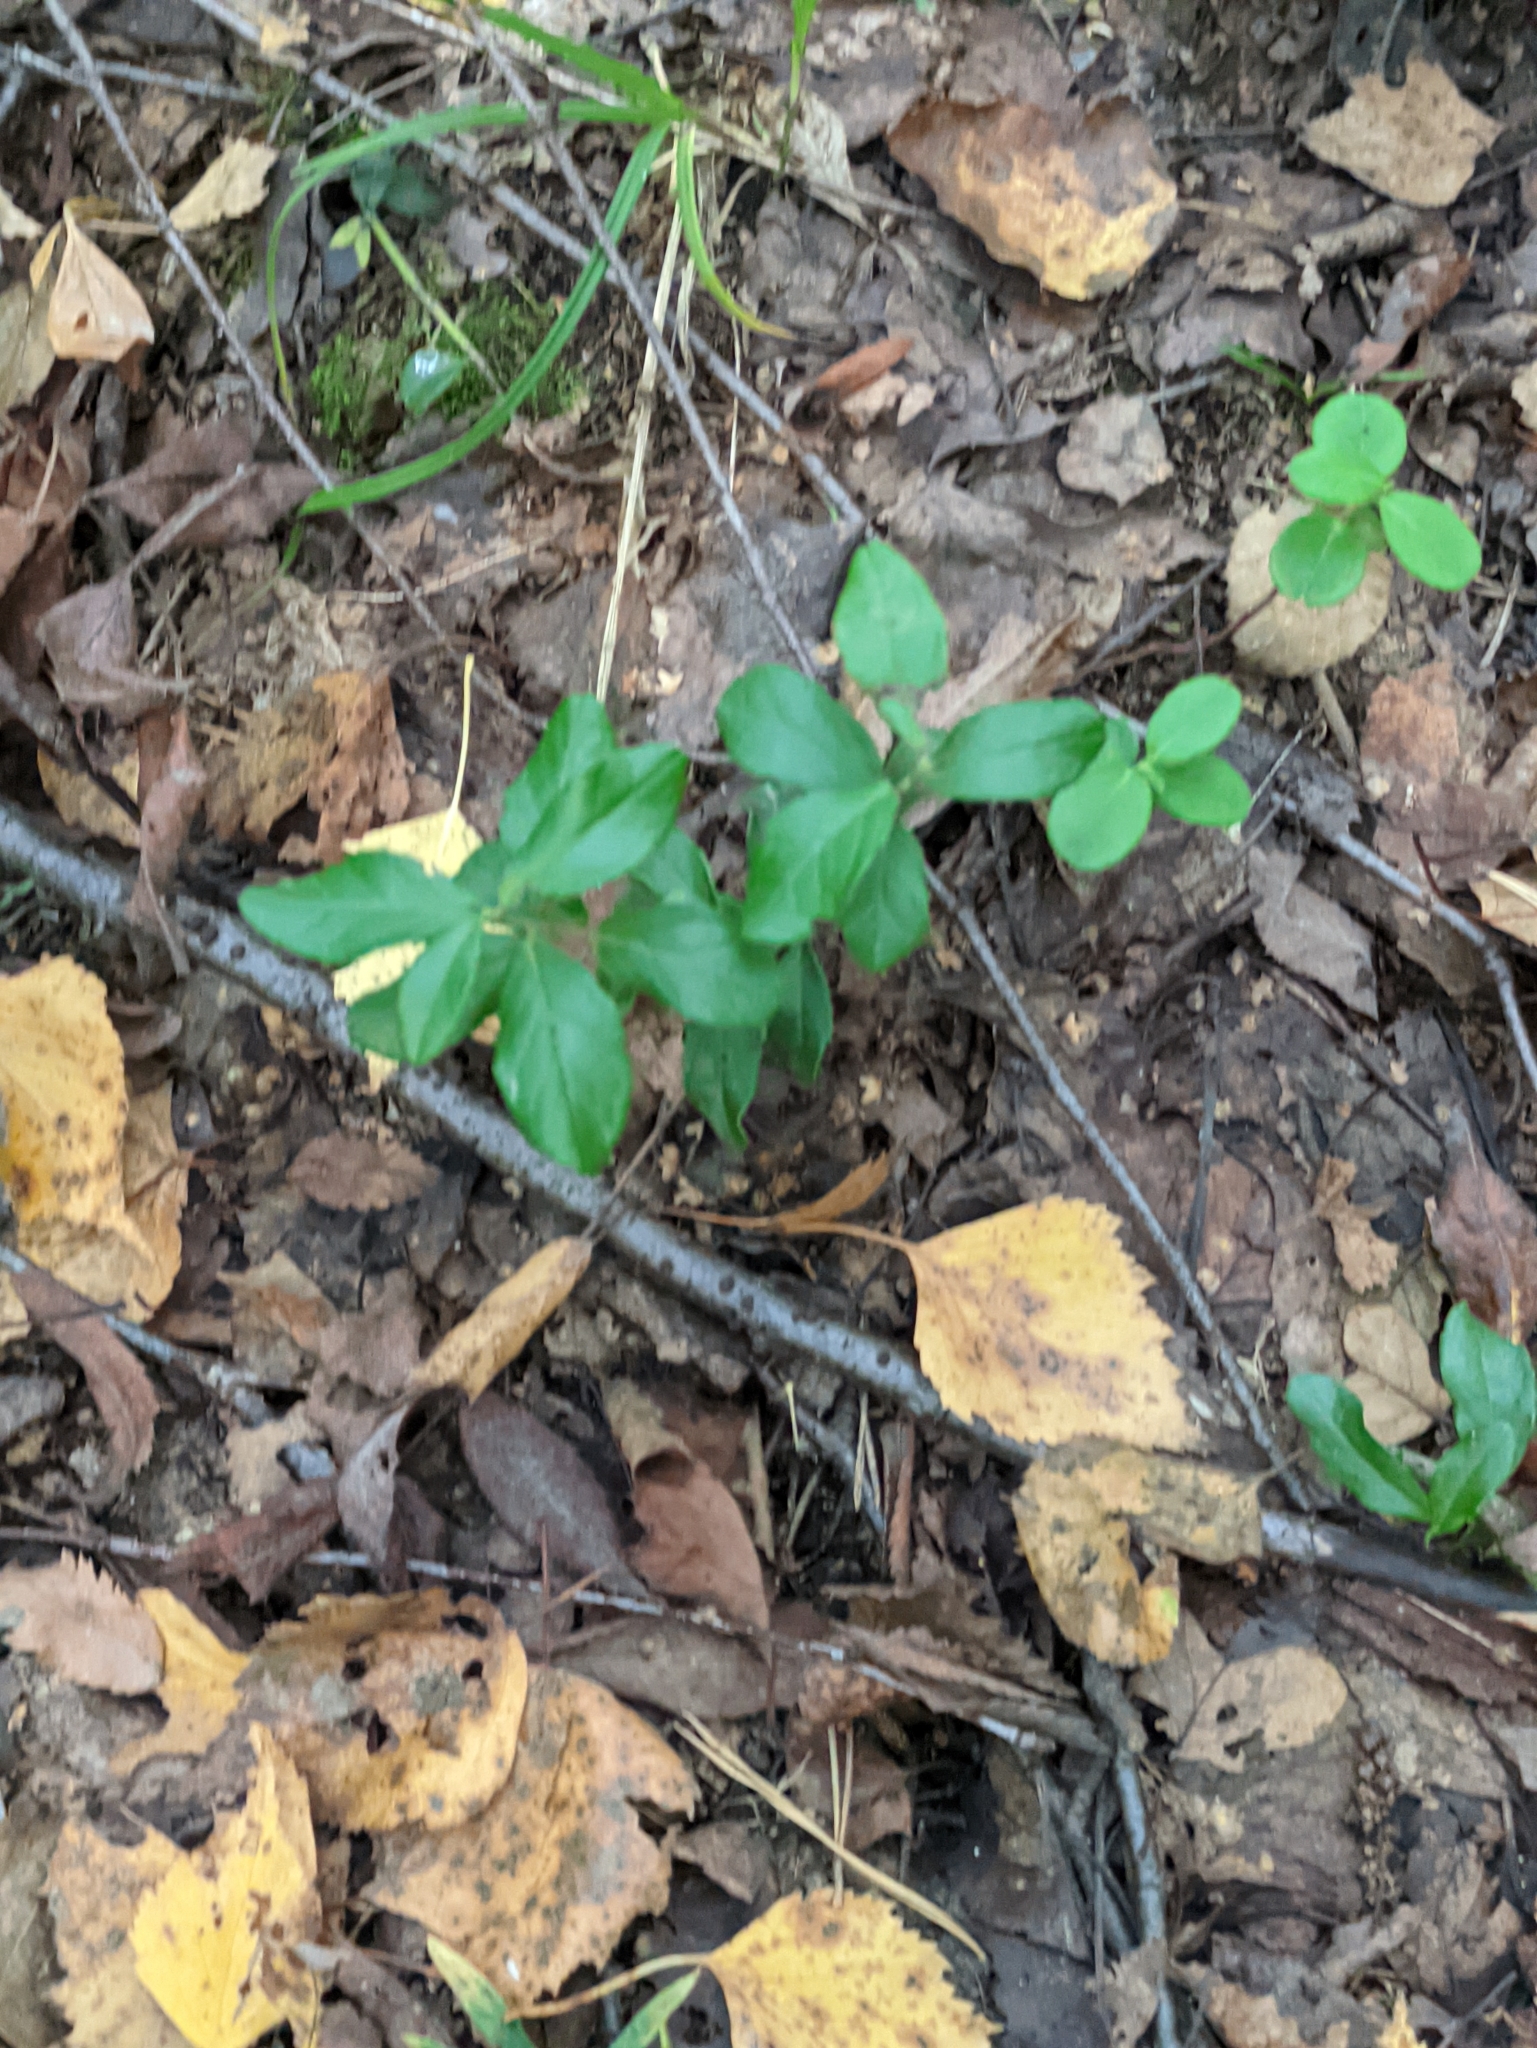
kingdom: Plantae
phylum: Tracheophyta
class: Magnoliopsida
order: Ericales
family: Ericaceae
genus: Vaccinium
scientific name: Vaccinium vitis-idaea
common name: Cowberry
